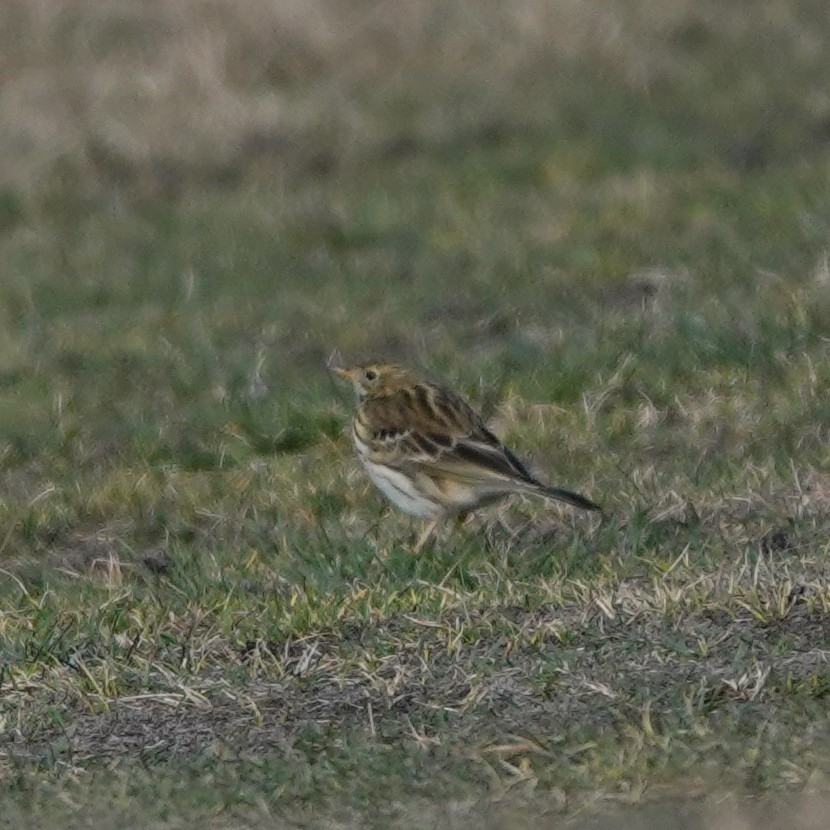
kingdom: Animalia
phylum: Chordata
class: Aves
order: Passeriformes
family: Motacillidae
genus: Anthus
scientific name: Anthus pratensis
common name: Meadow pipit
